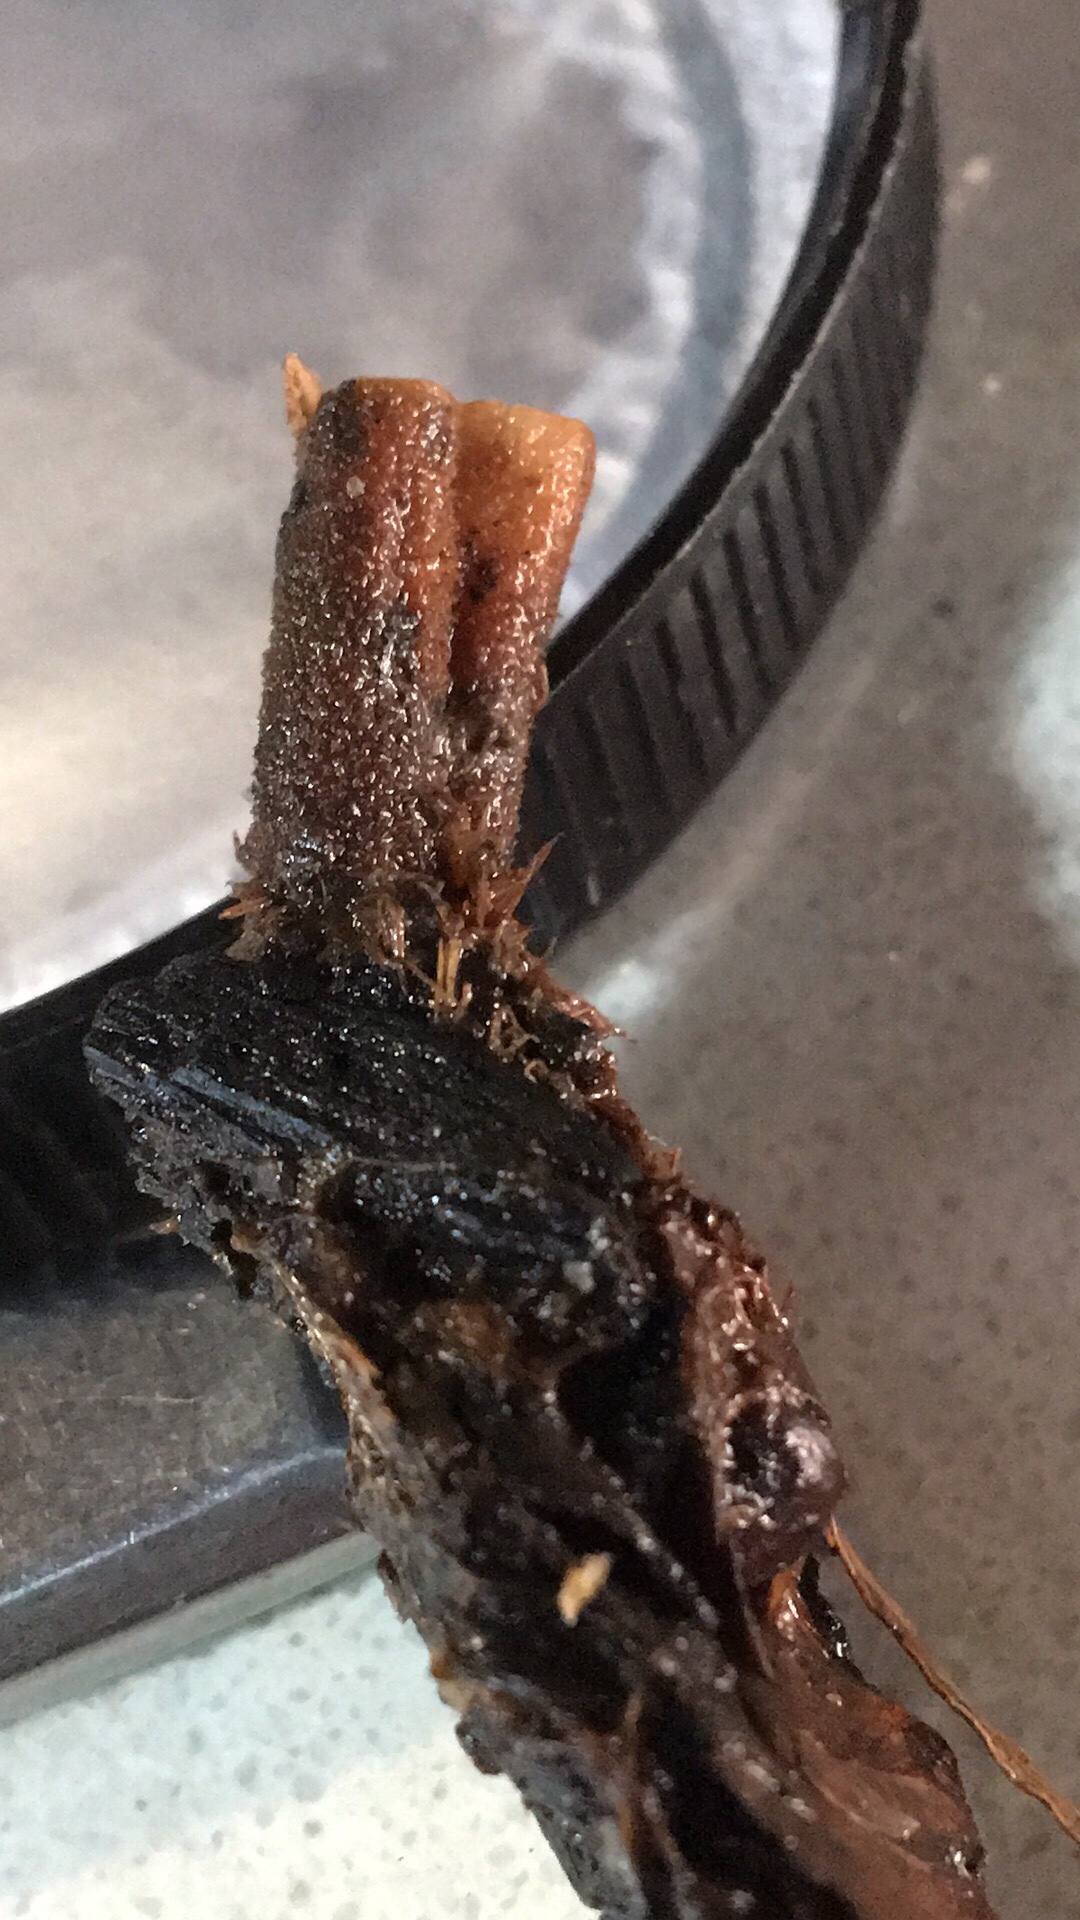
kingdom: Fungi
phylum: Basidiomycota
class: Agaricomycetes
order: Russulales
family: Auriscalpiaceae
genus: Lentinellus
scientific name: Lentinellus tasmanicus
